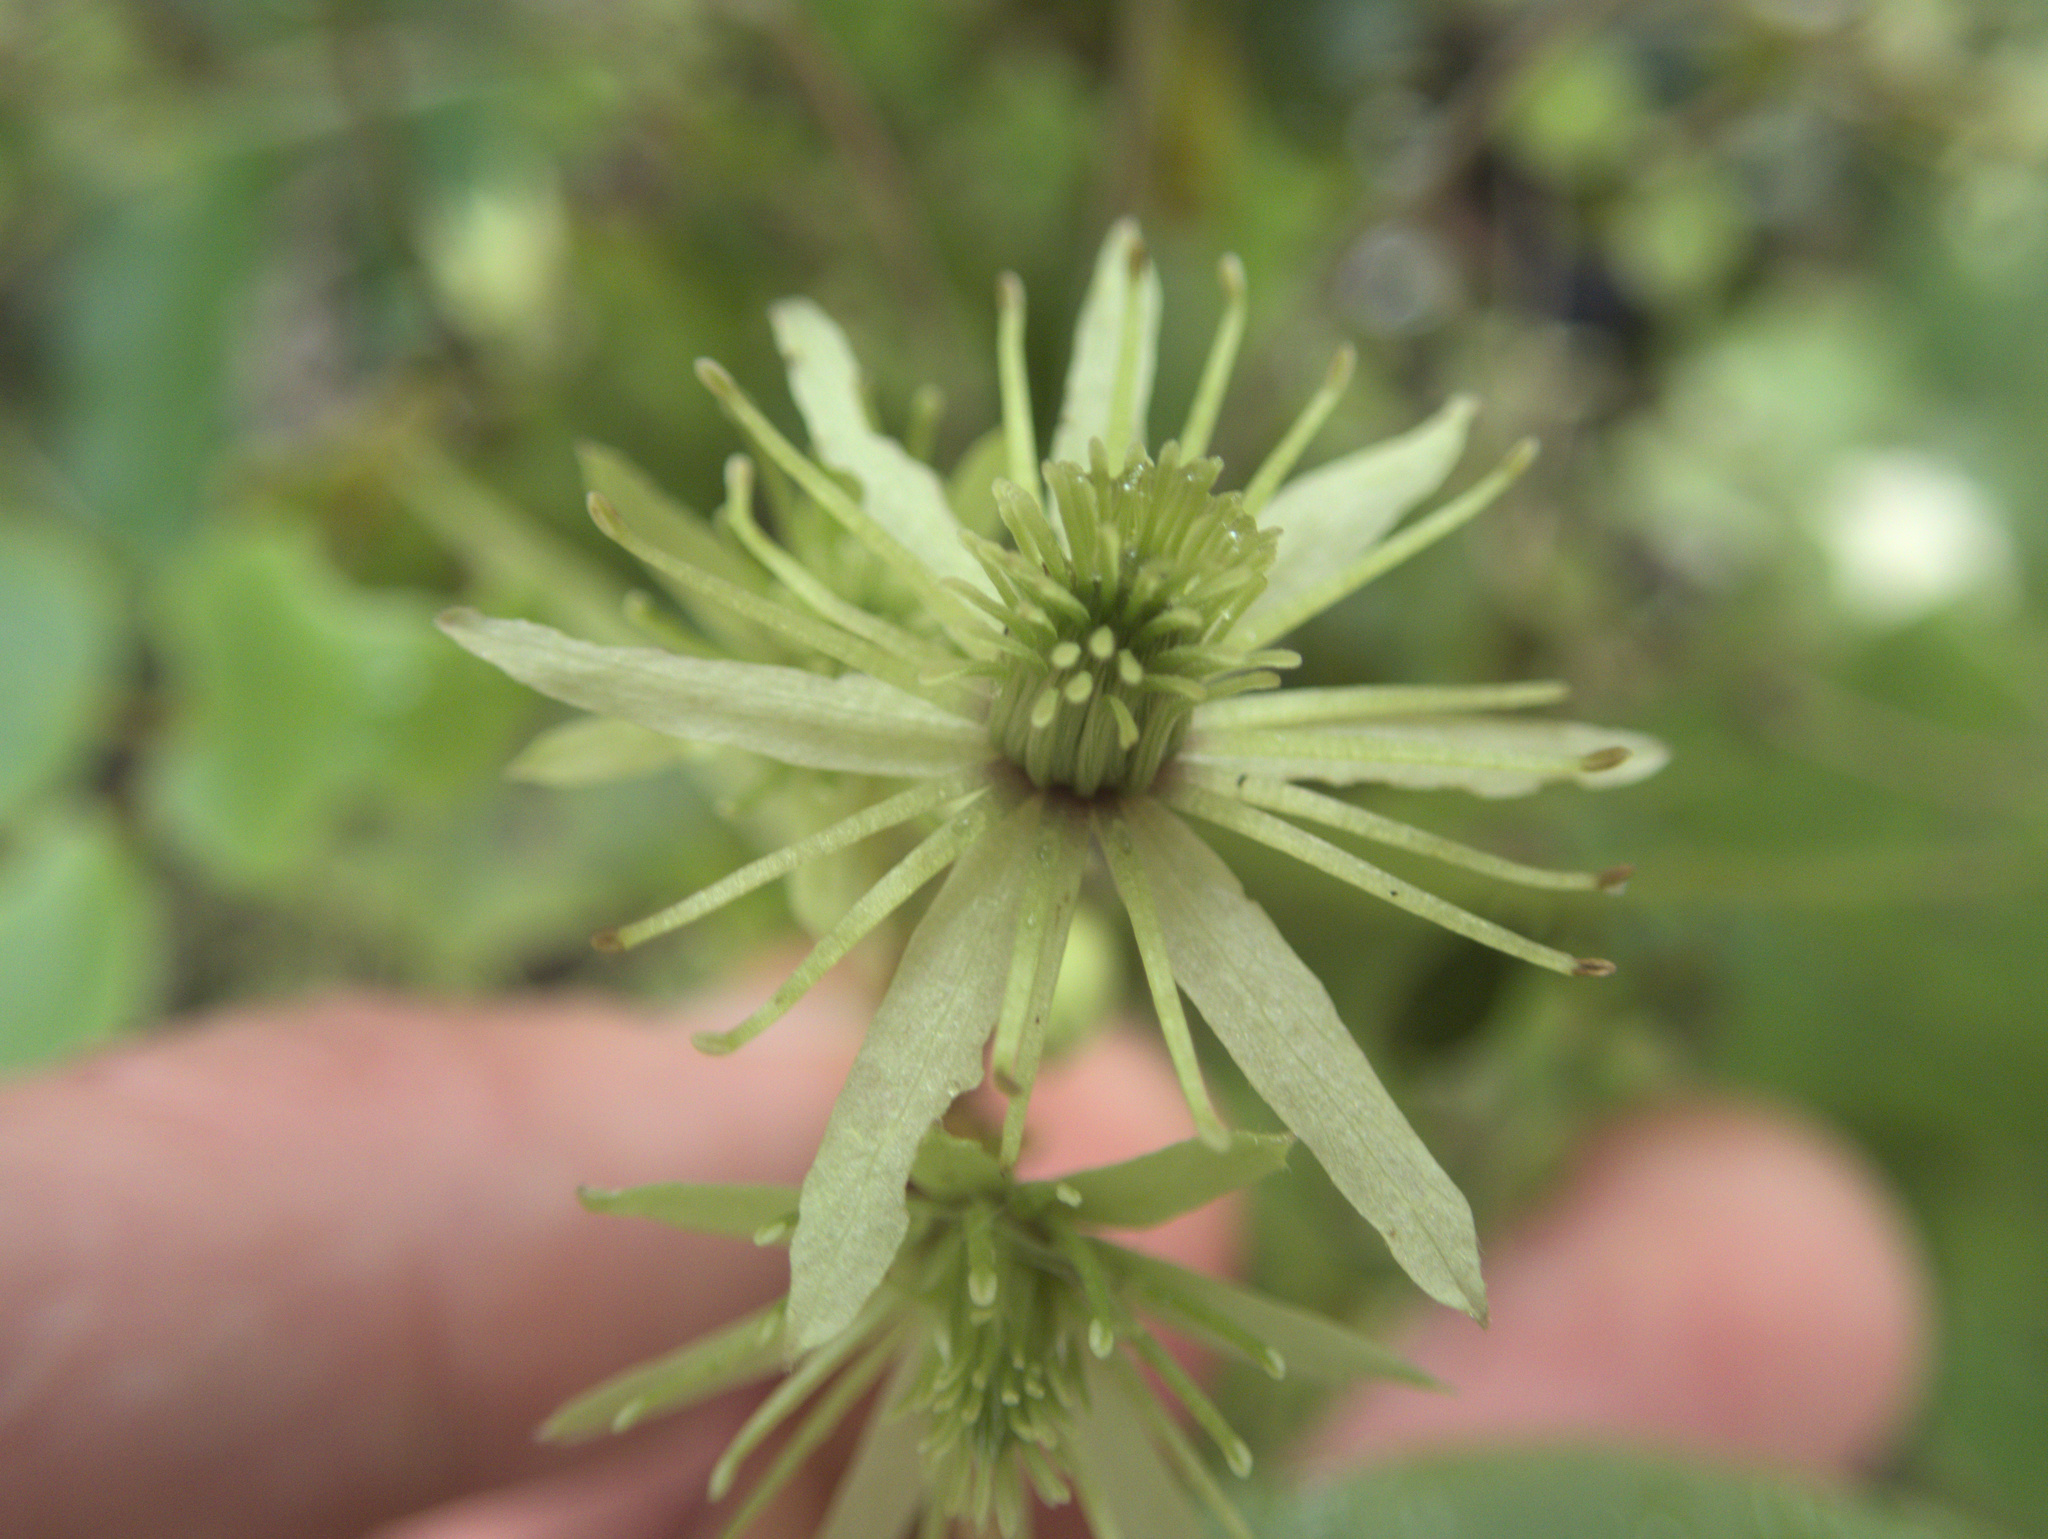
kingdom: Plantae
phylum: Tracheophyta
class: Magnoliopsida
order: Ranunculales
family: Ranunculaceae
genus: Clematis
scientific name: Clematis cunninghamii
